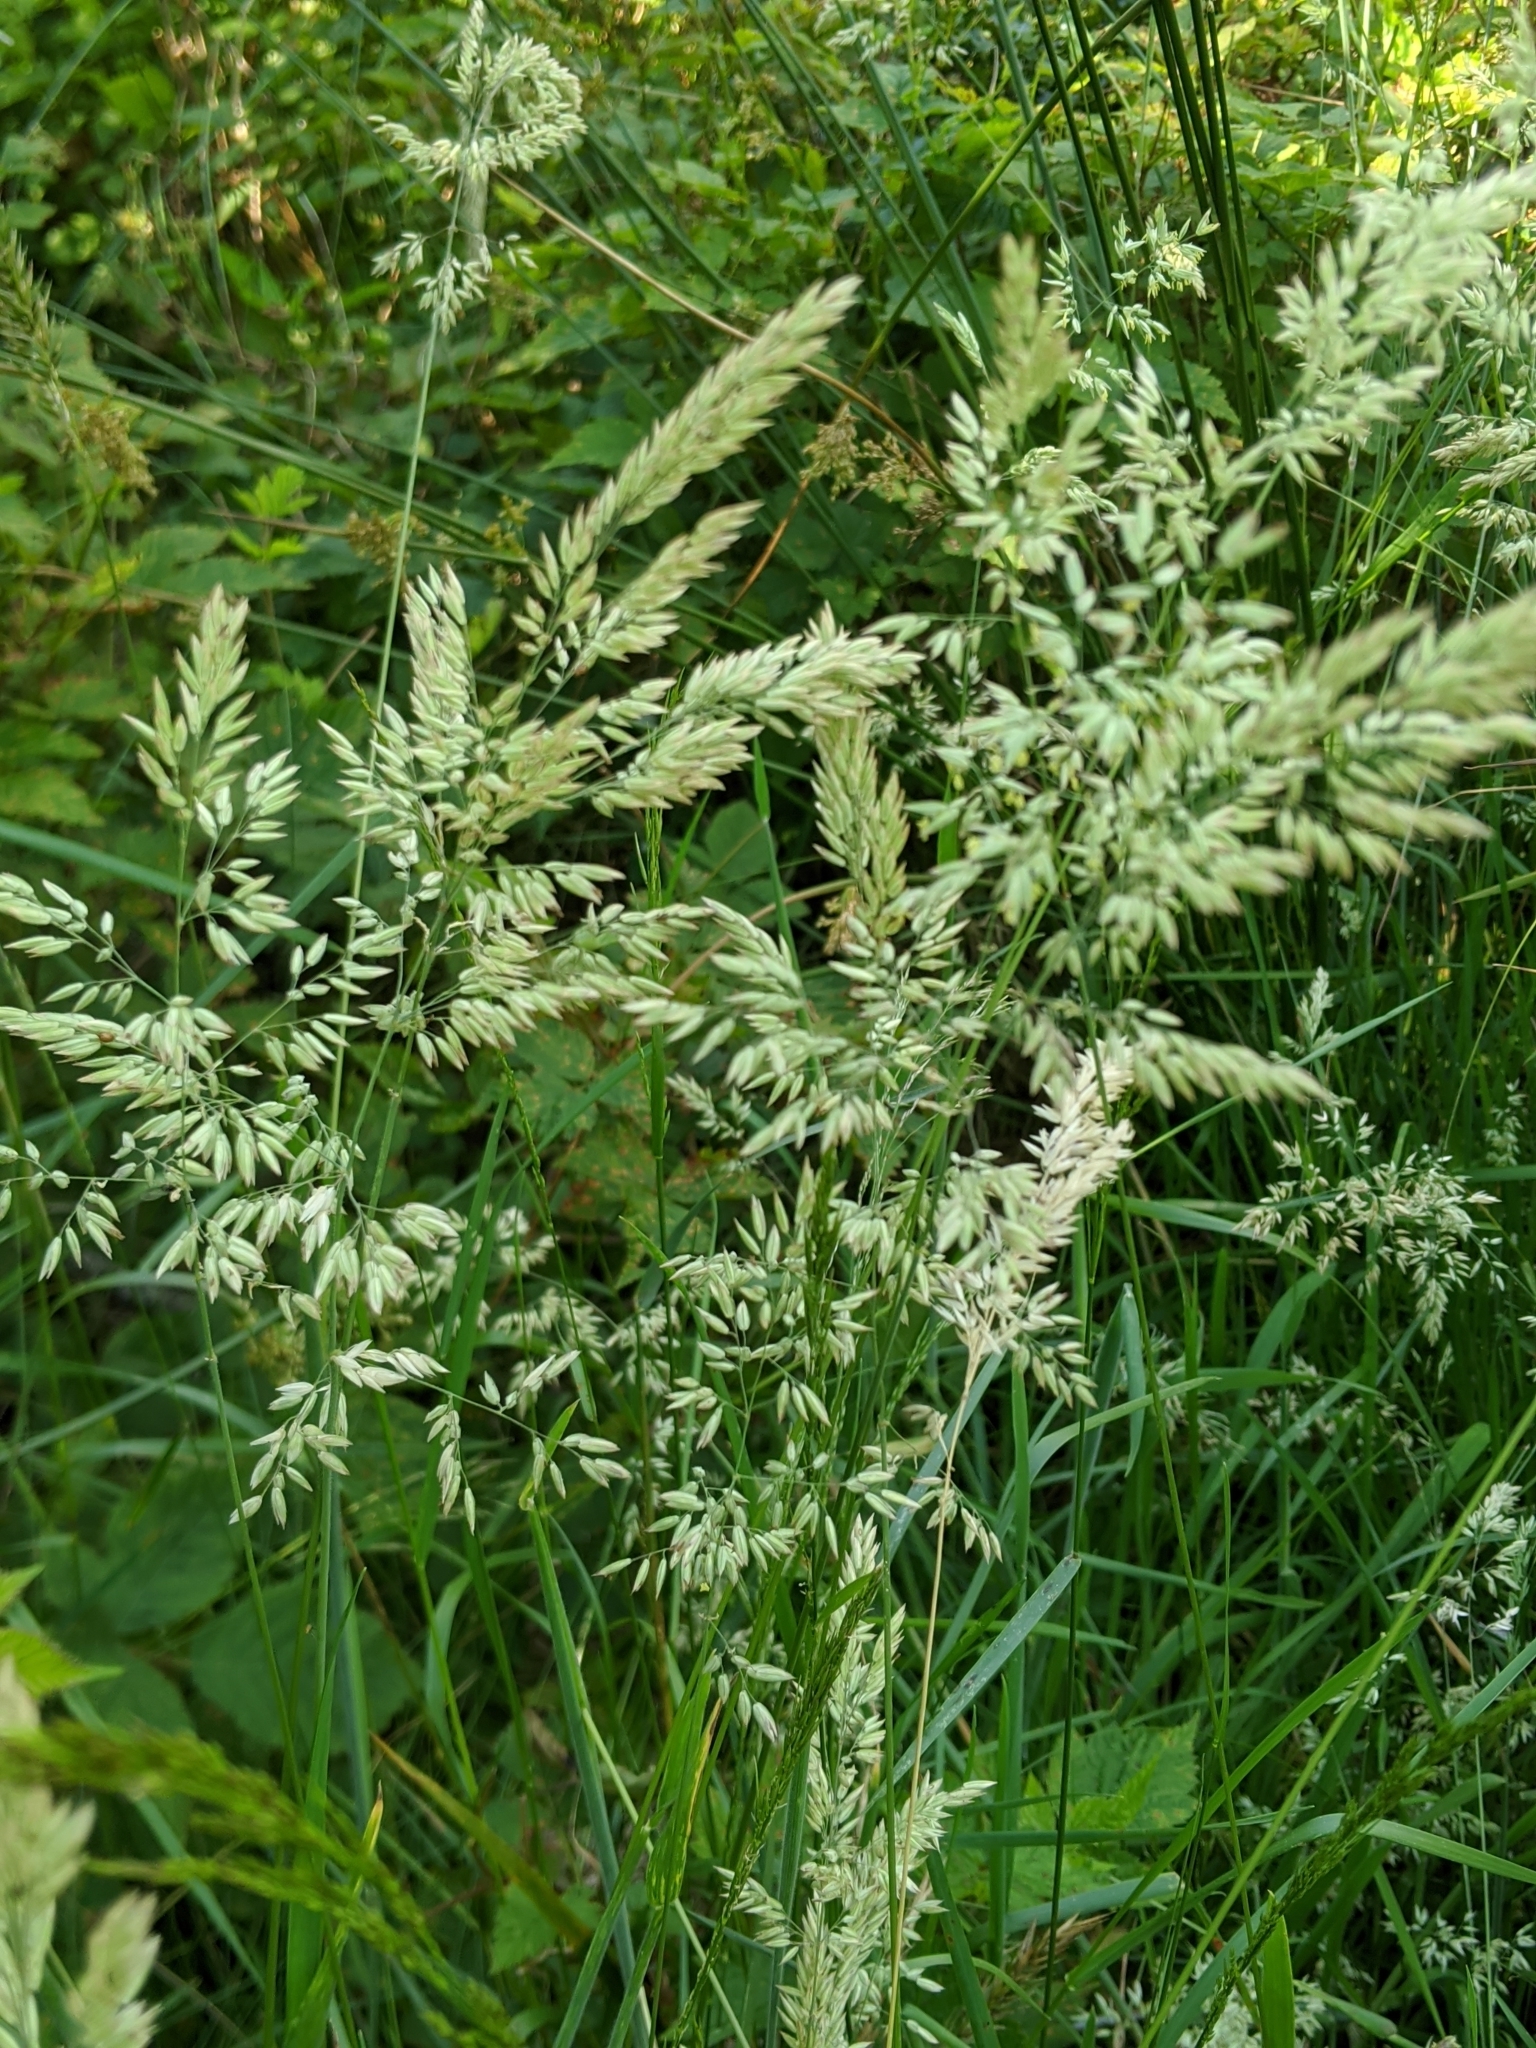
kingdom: Plantae
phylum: Tracheophyta
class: Liliopsida
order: Poales
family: Poaceae
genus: Holcus
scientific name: Holcus lanatus
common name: Yorkshire-fog
